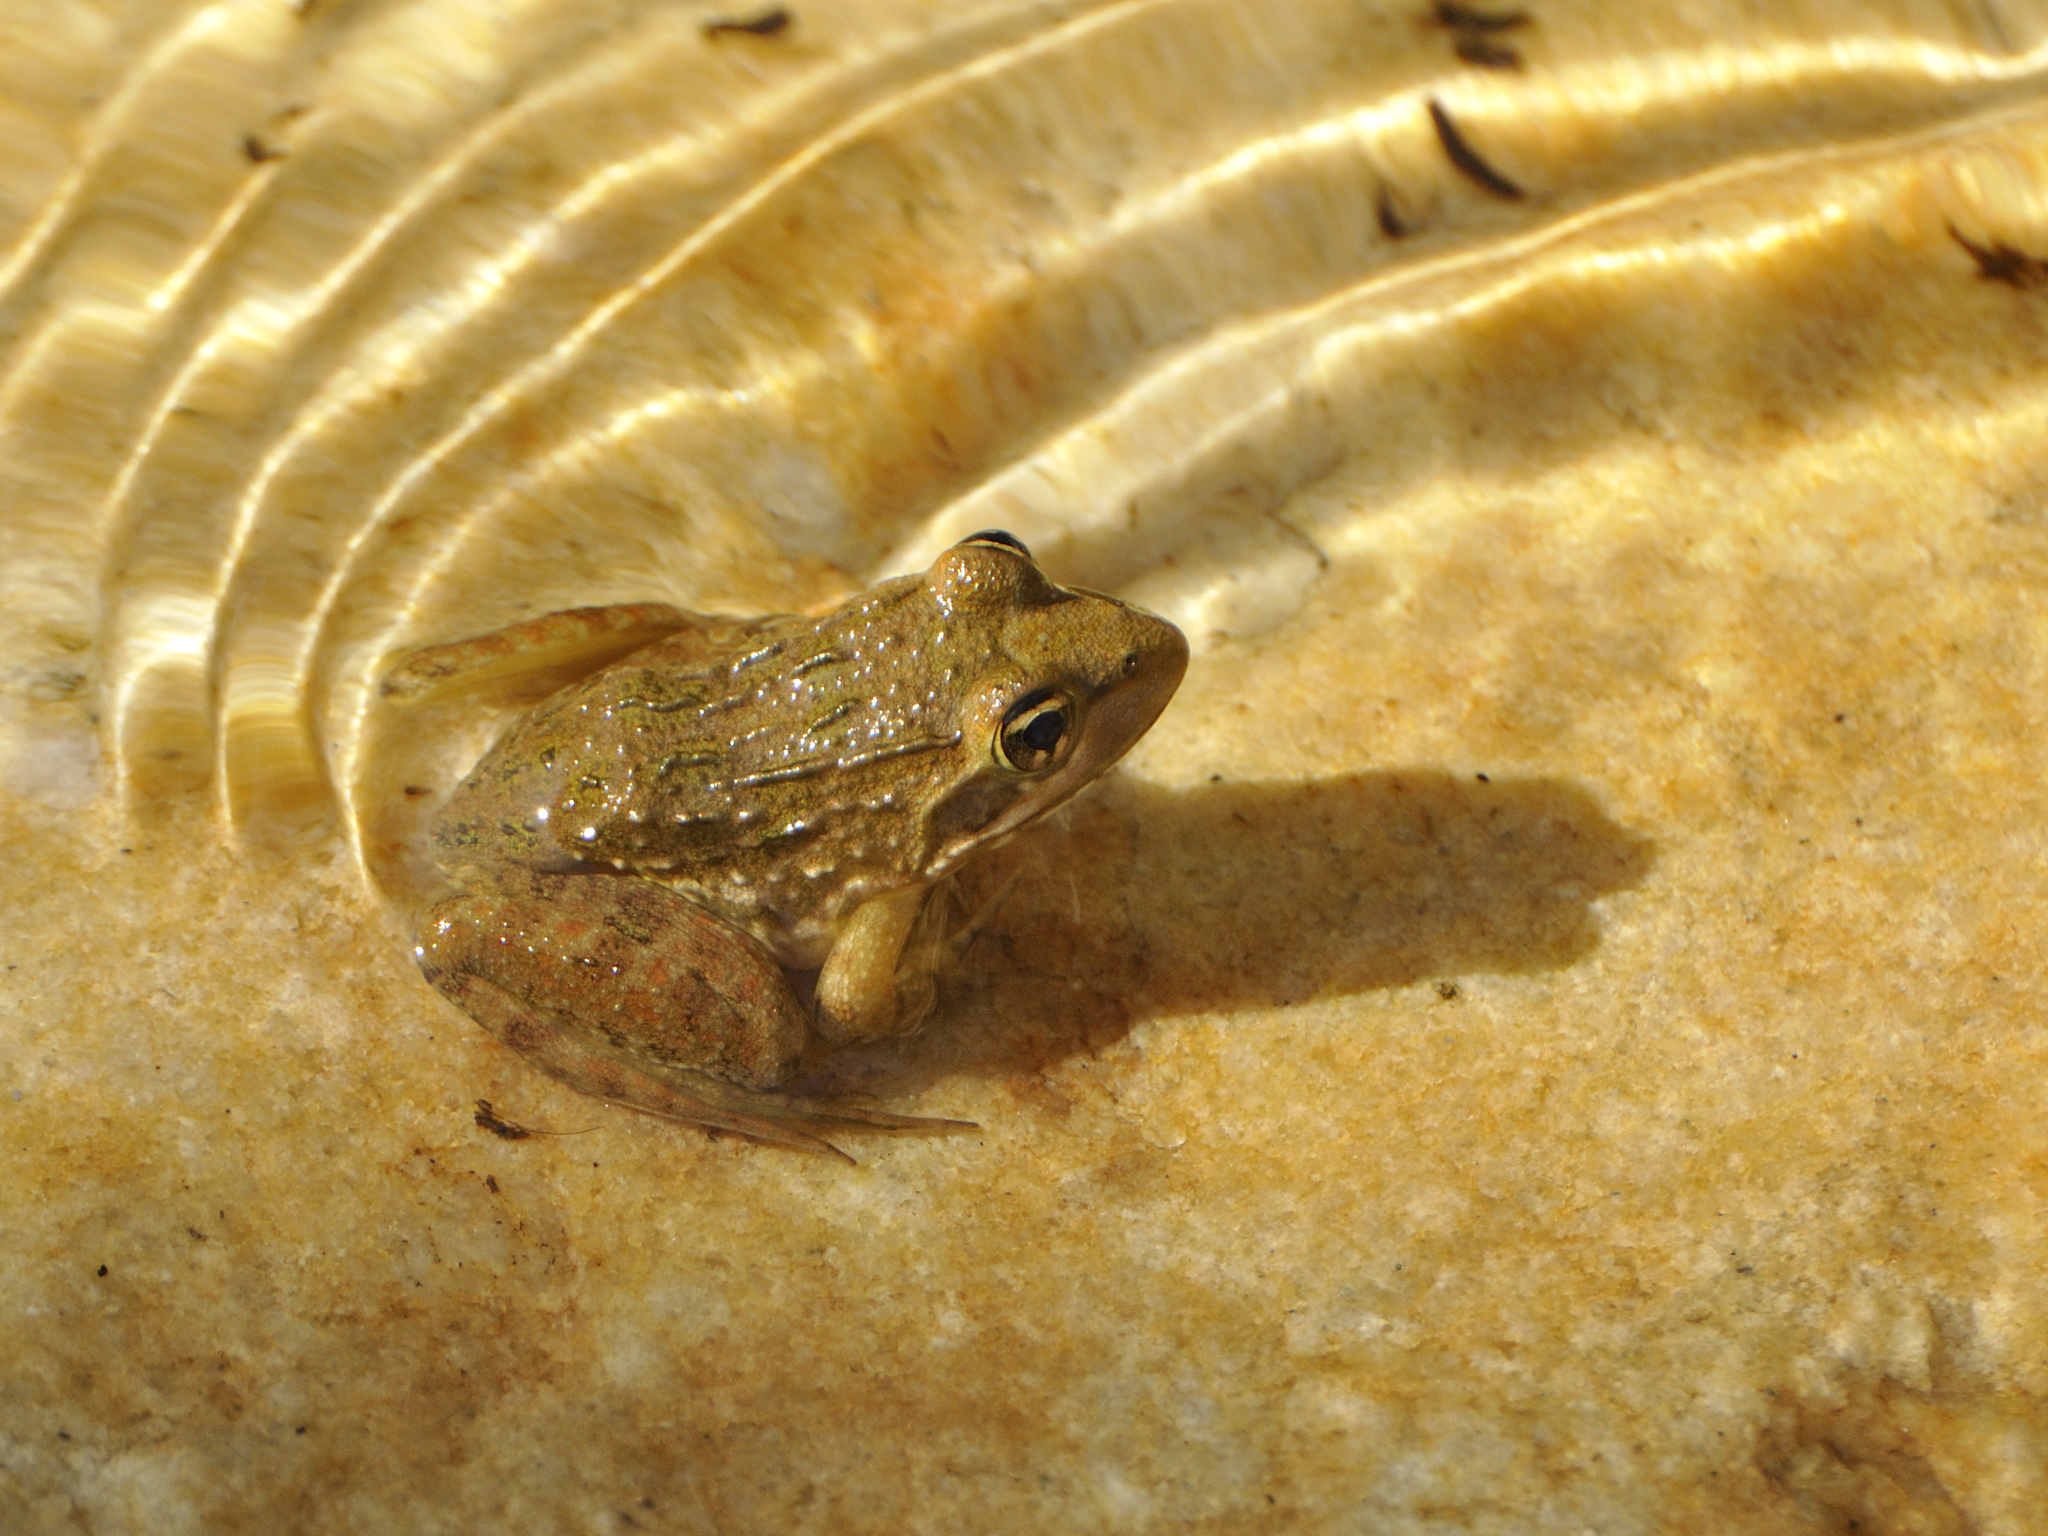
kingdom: Animalia
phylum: Chordata
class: Amphibia
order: Anura
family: Pyxicephalidae
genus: Amietia
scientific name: Amietia fuscigula
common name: Cape rana
